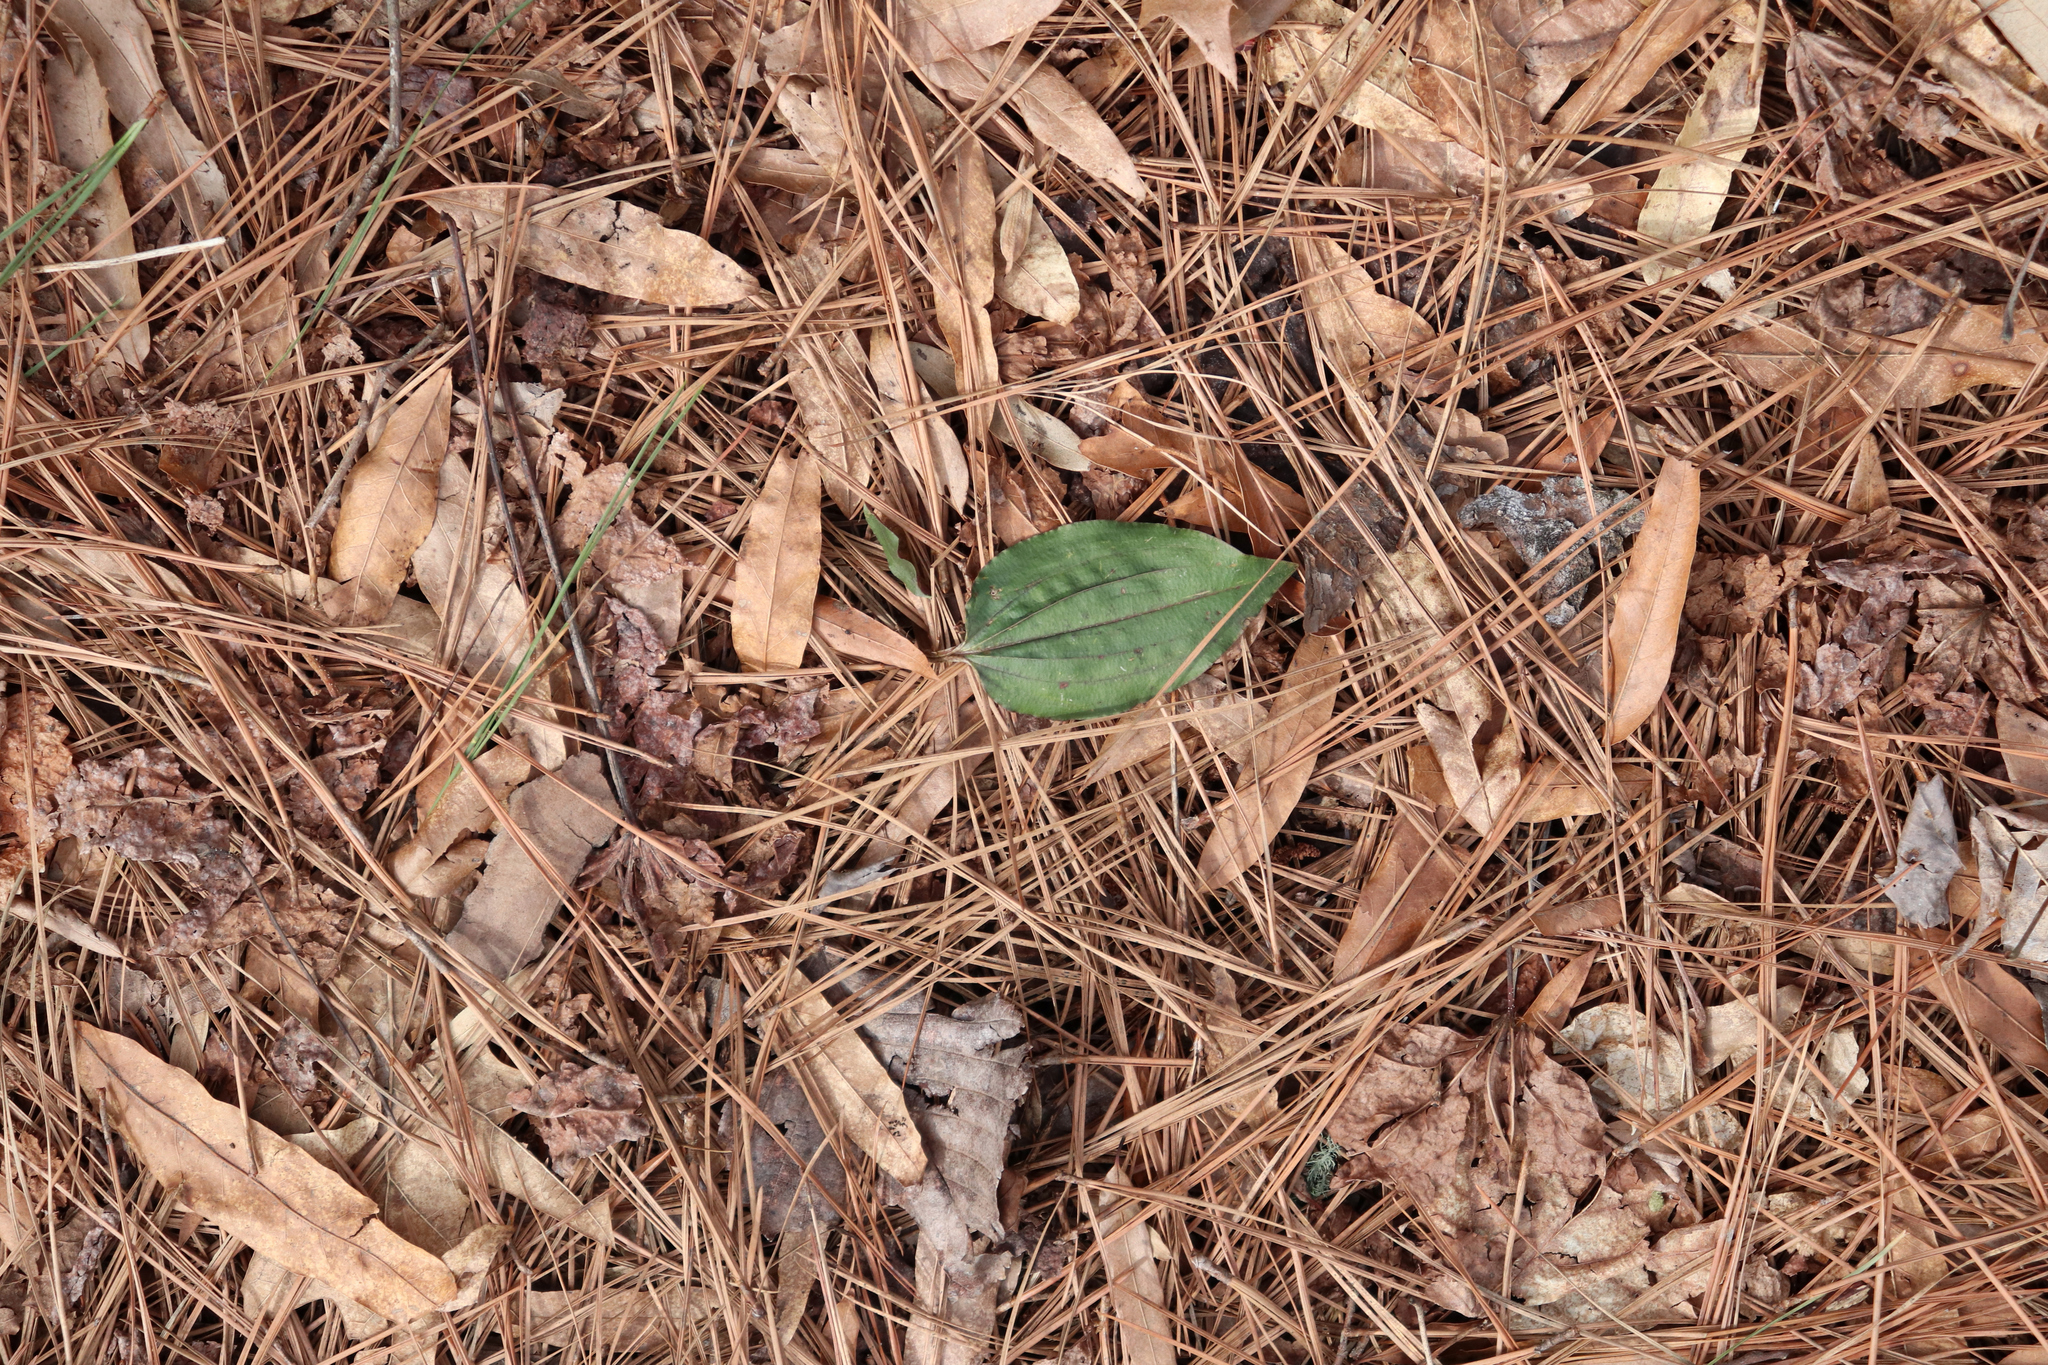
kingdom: Plantae
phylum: Tracheophyta
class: Liliopsida
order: Asparagales
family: Orchidaceae
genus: Tipularia
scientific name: Tipularia discolor
